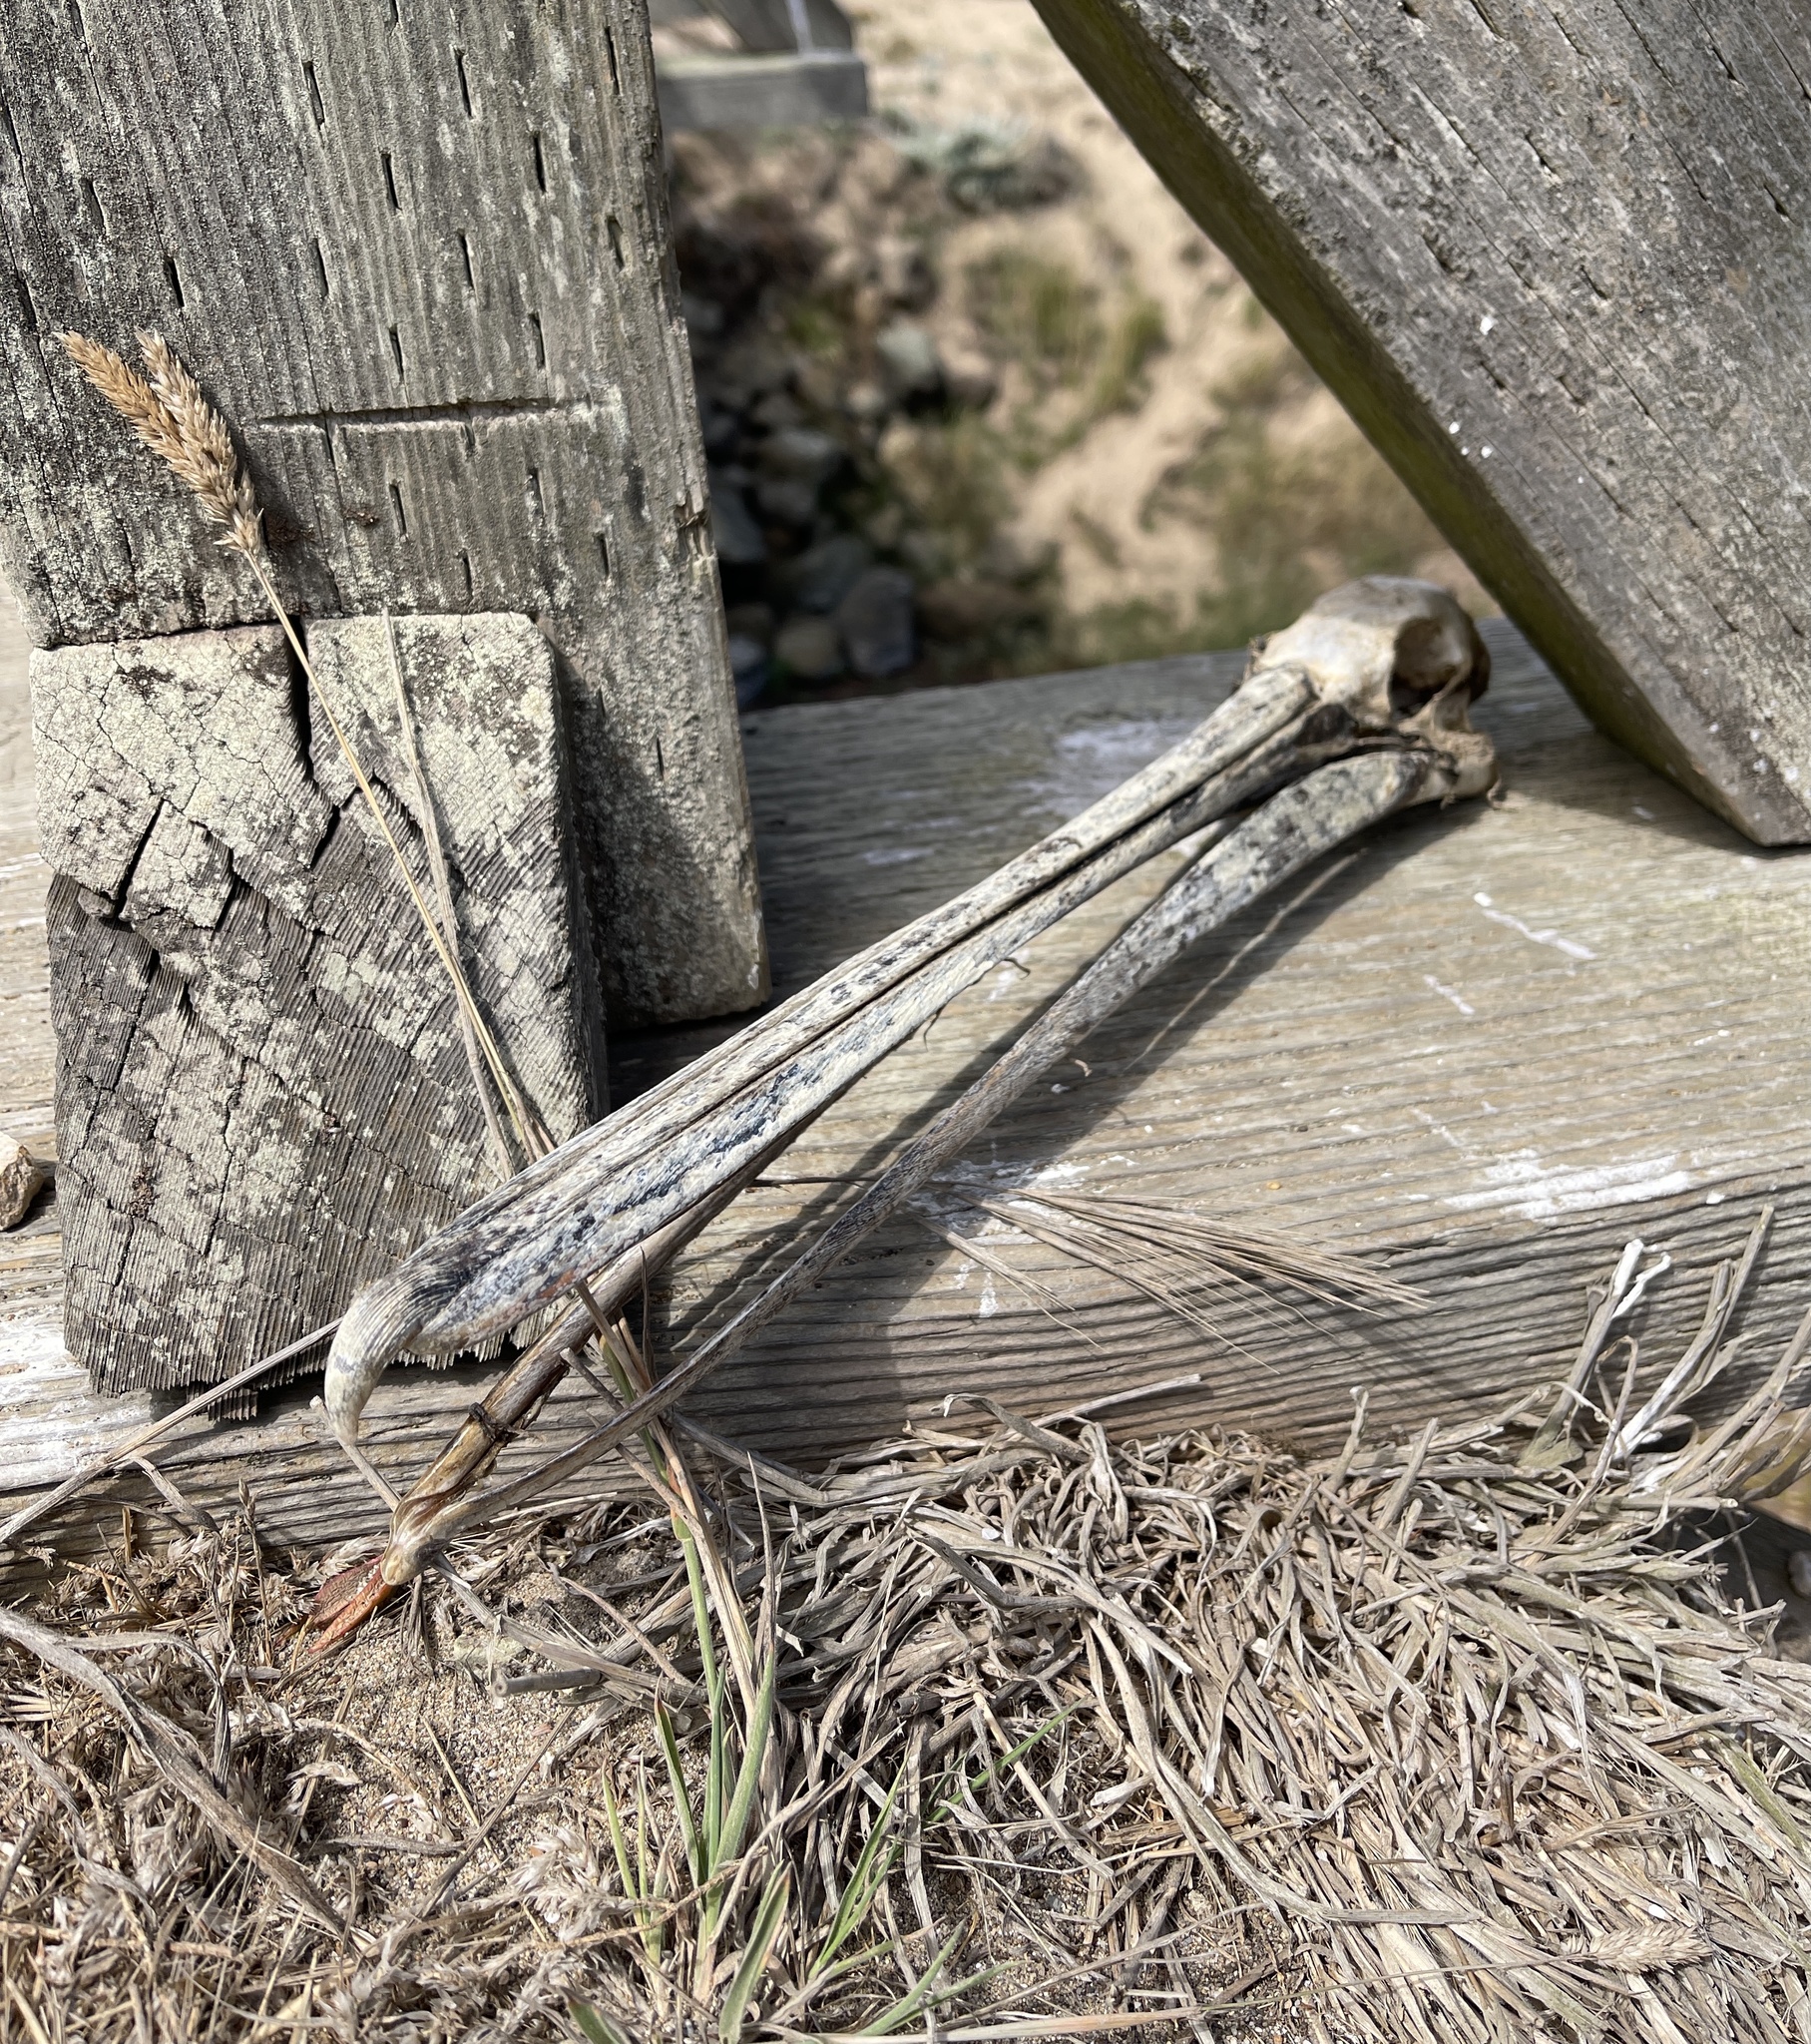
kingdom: Animalia
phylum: Chordata
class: Aves
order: Pelecaniformes
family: Pelecanidae
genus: Pelecanus
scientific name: Pelecanus occidentalis
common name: Brown pelican
